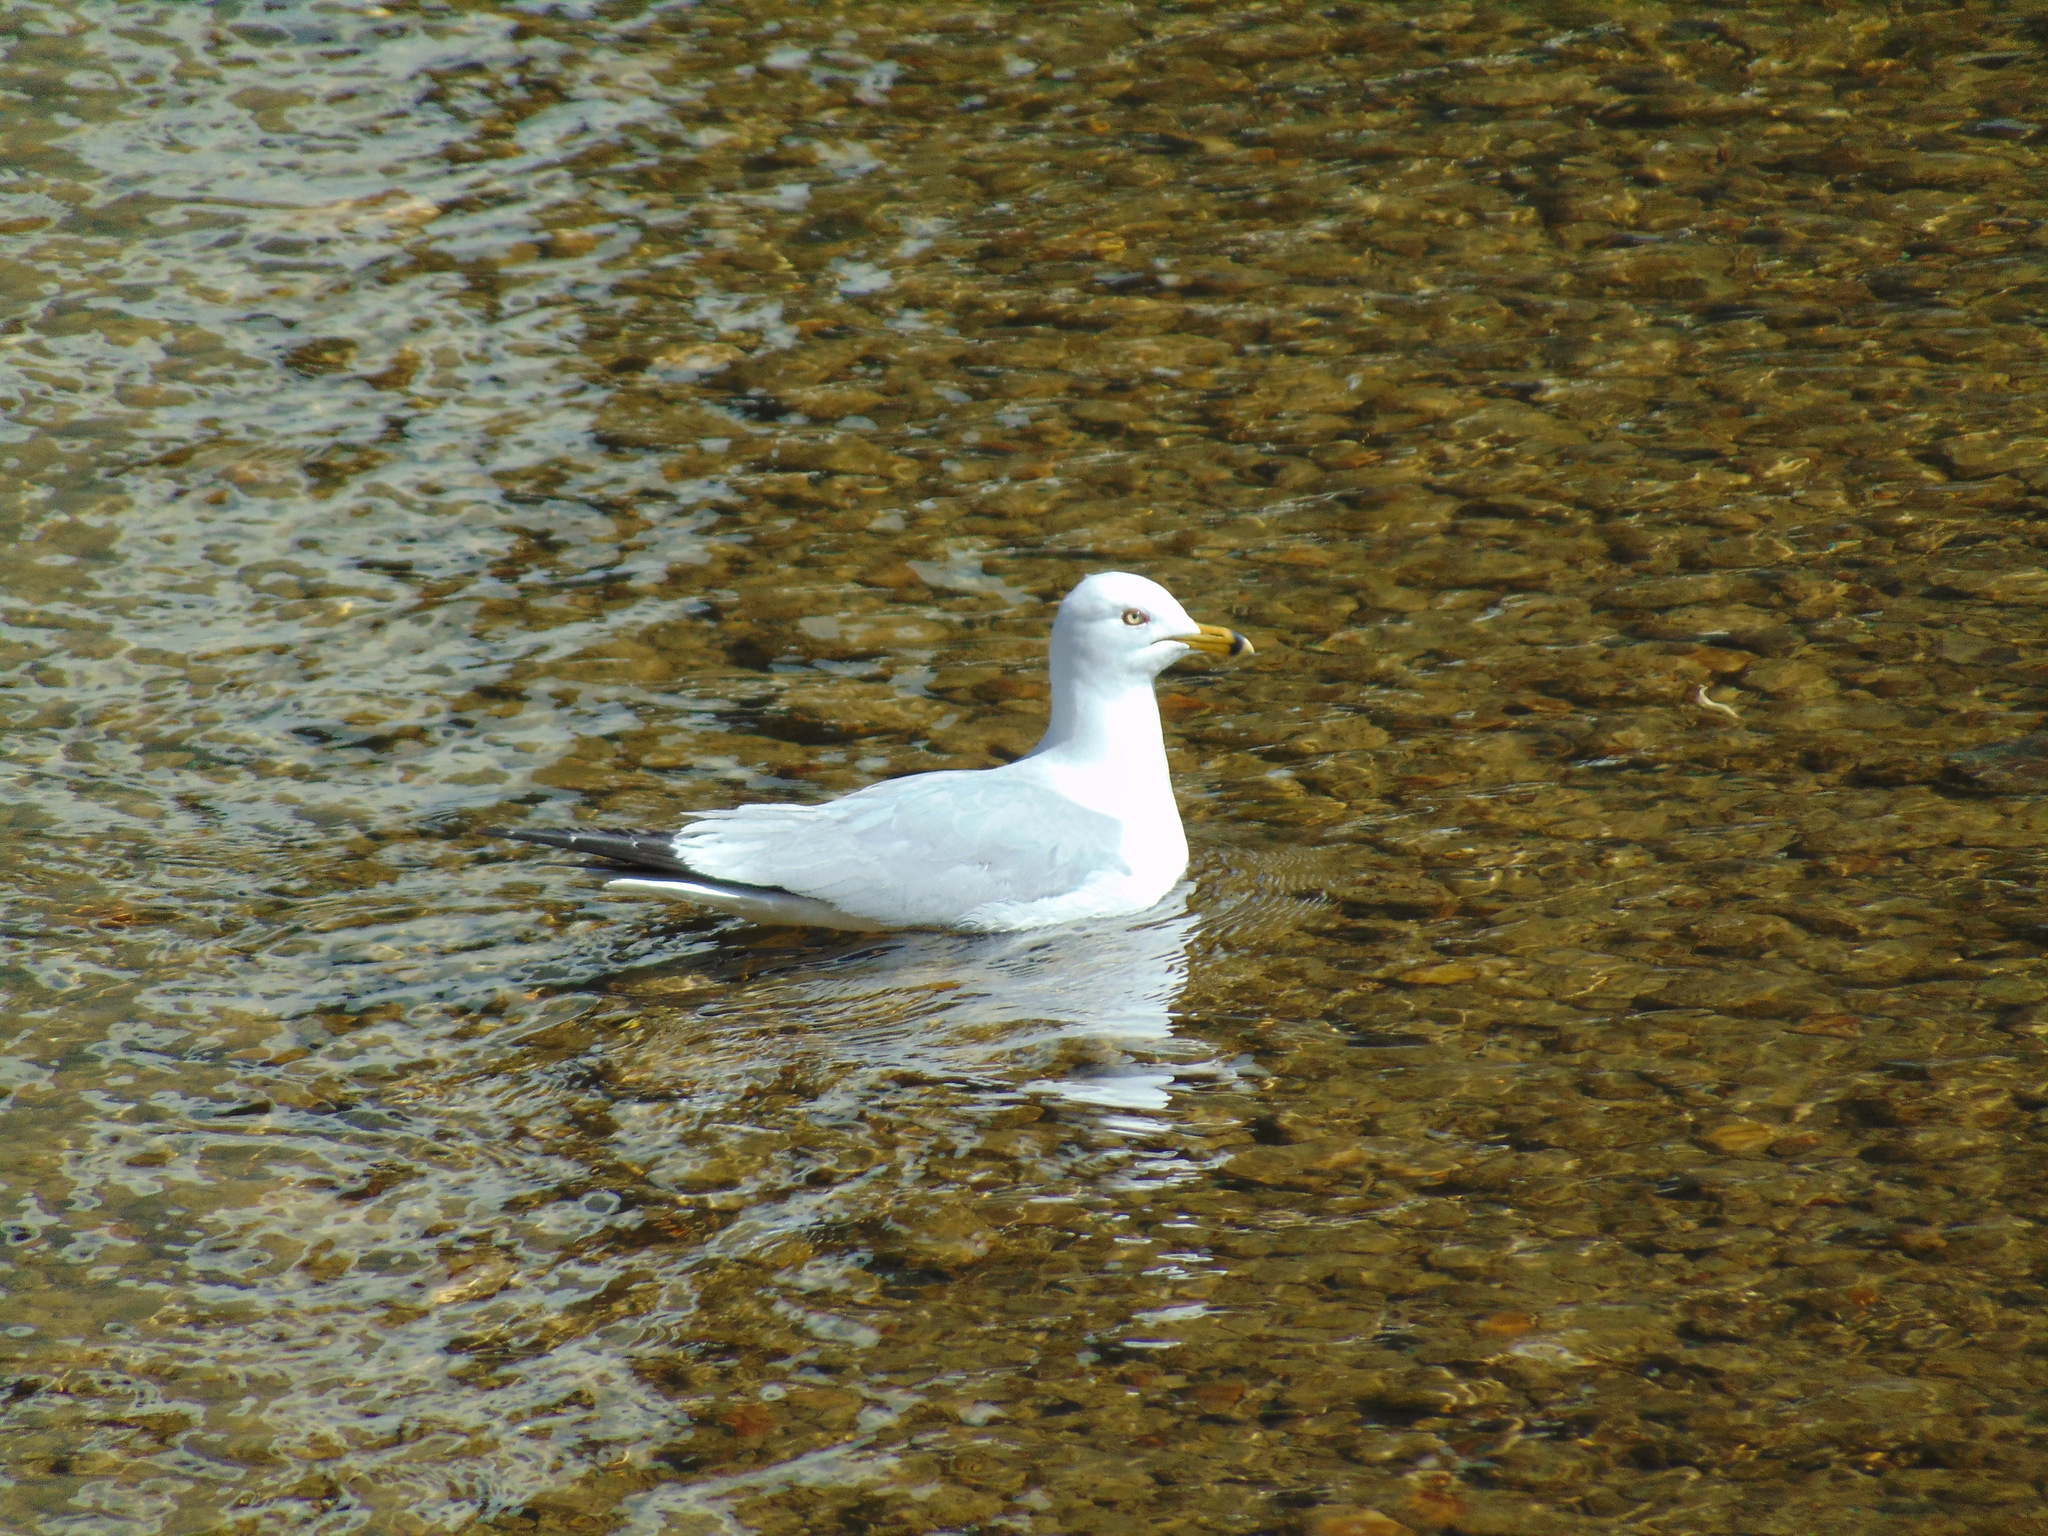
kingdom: Animalia
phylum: Chordata
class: Aves
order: Charadriiformes
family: Laridae
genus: Larus
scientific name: Larus delawarensis
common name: Ring-billed gull
